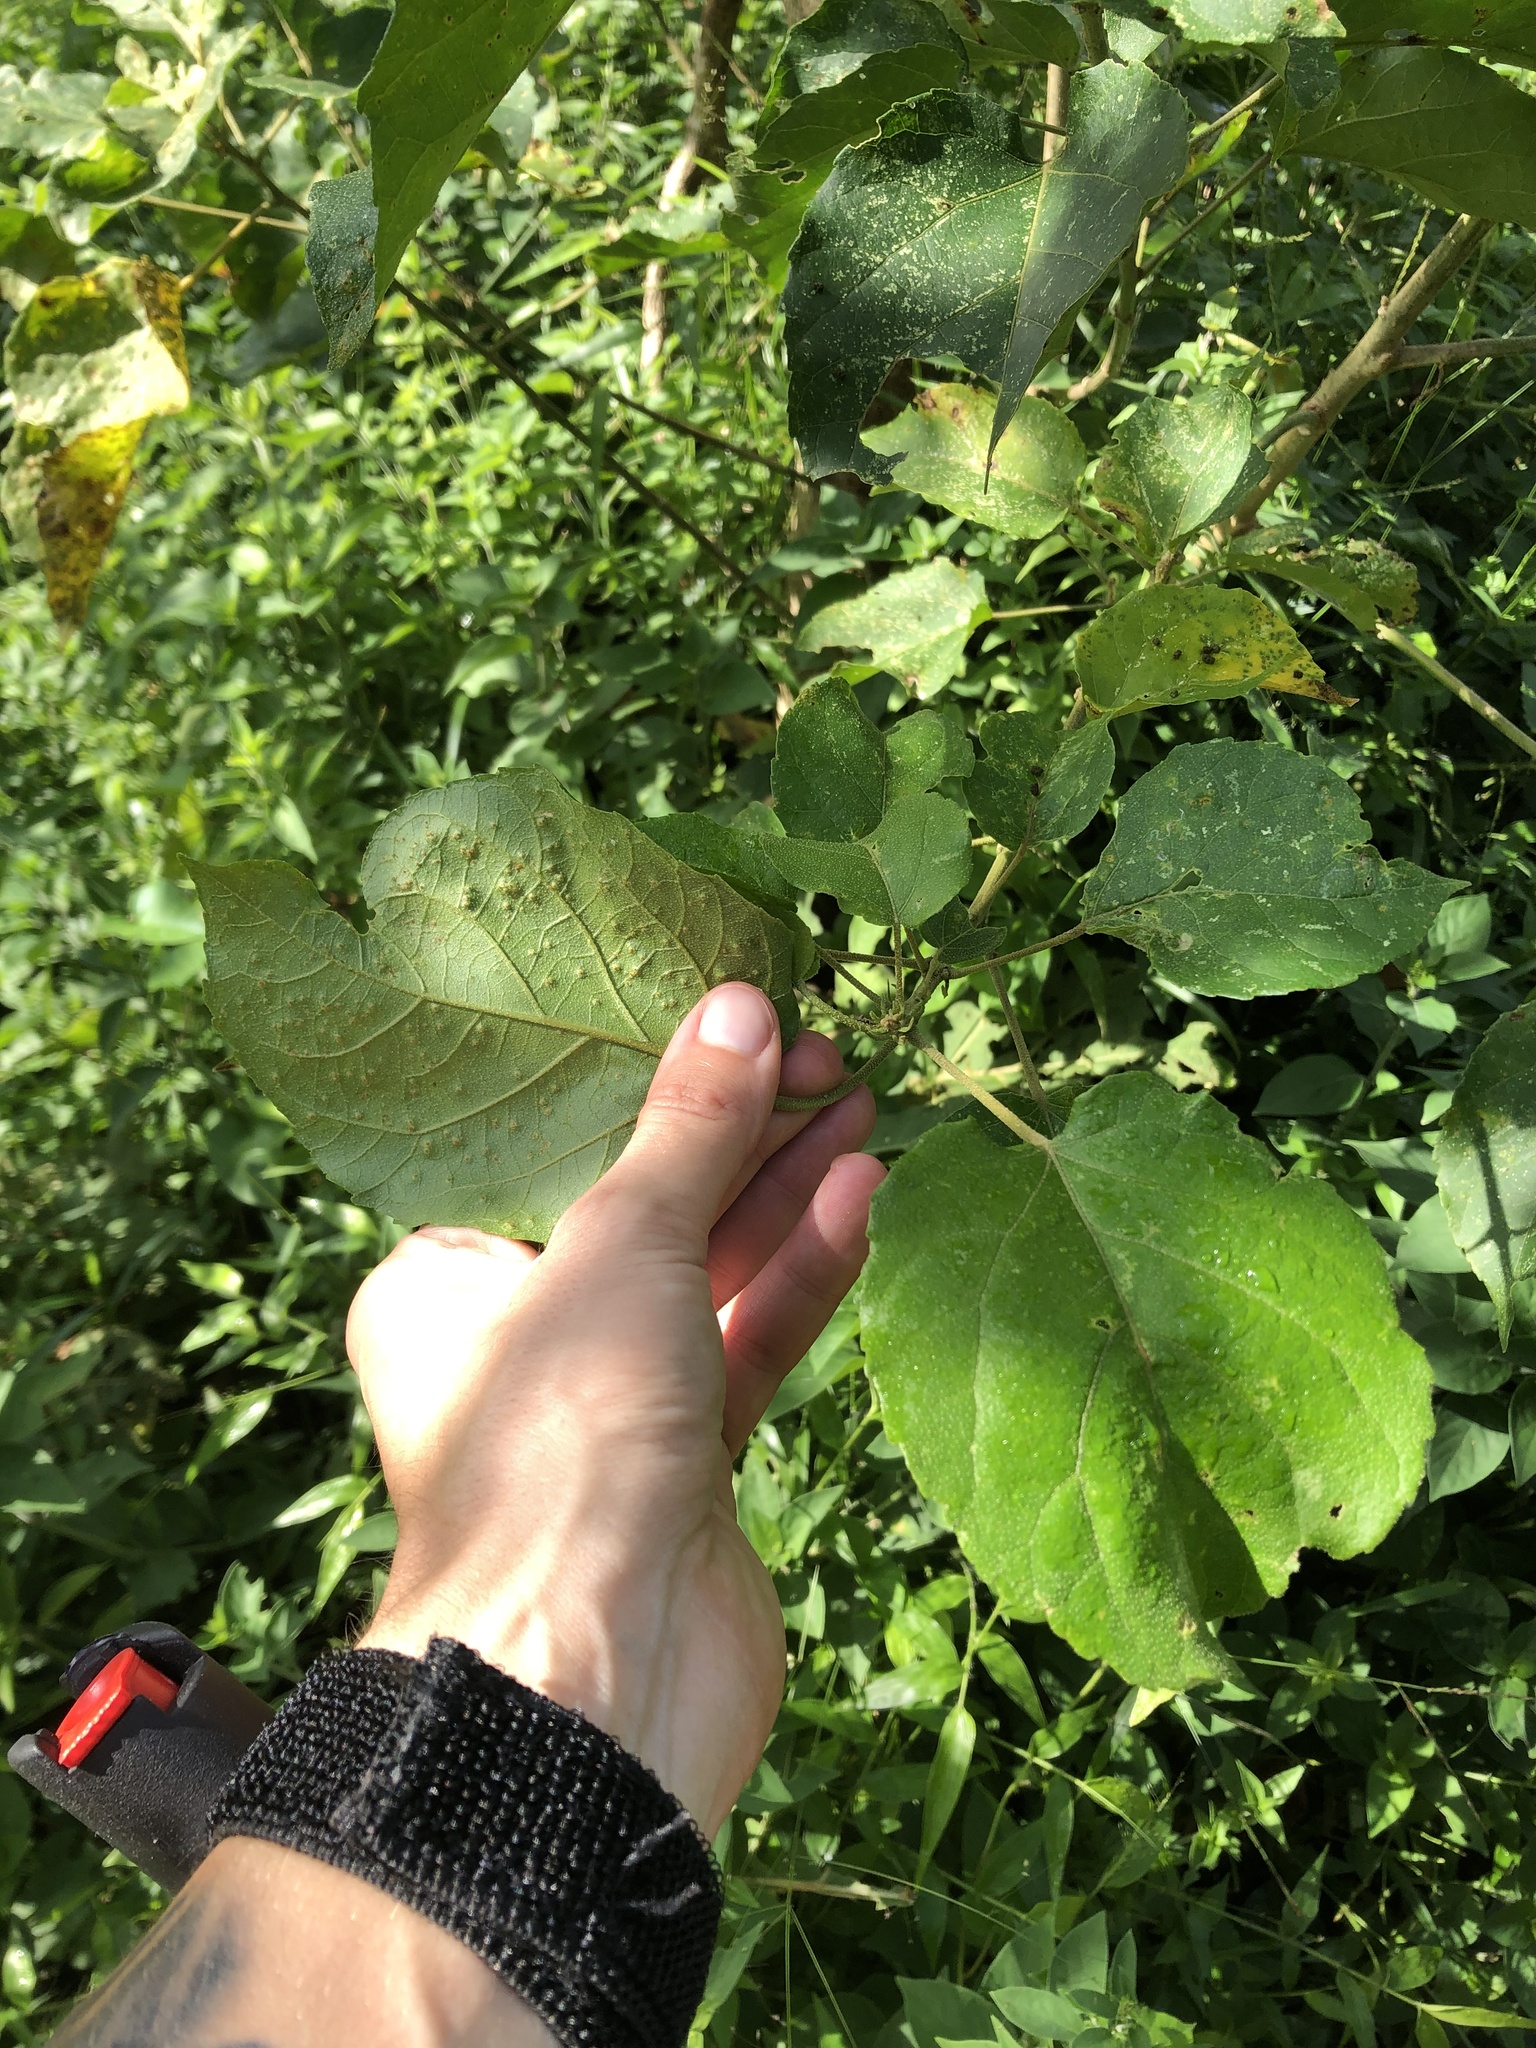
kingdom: Plantae
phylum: Tracheophyta
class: Magnoliopsida
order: Malpighiales
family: Euphorbiaceae
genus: Croton
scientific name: Croton sylvaticus
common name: Forest croton
